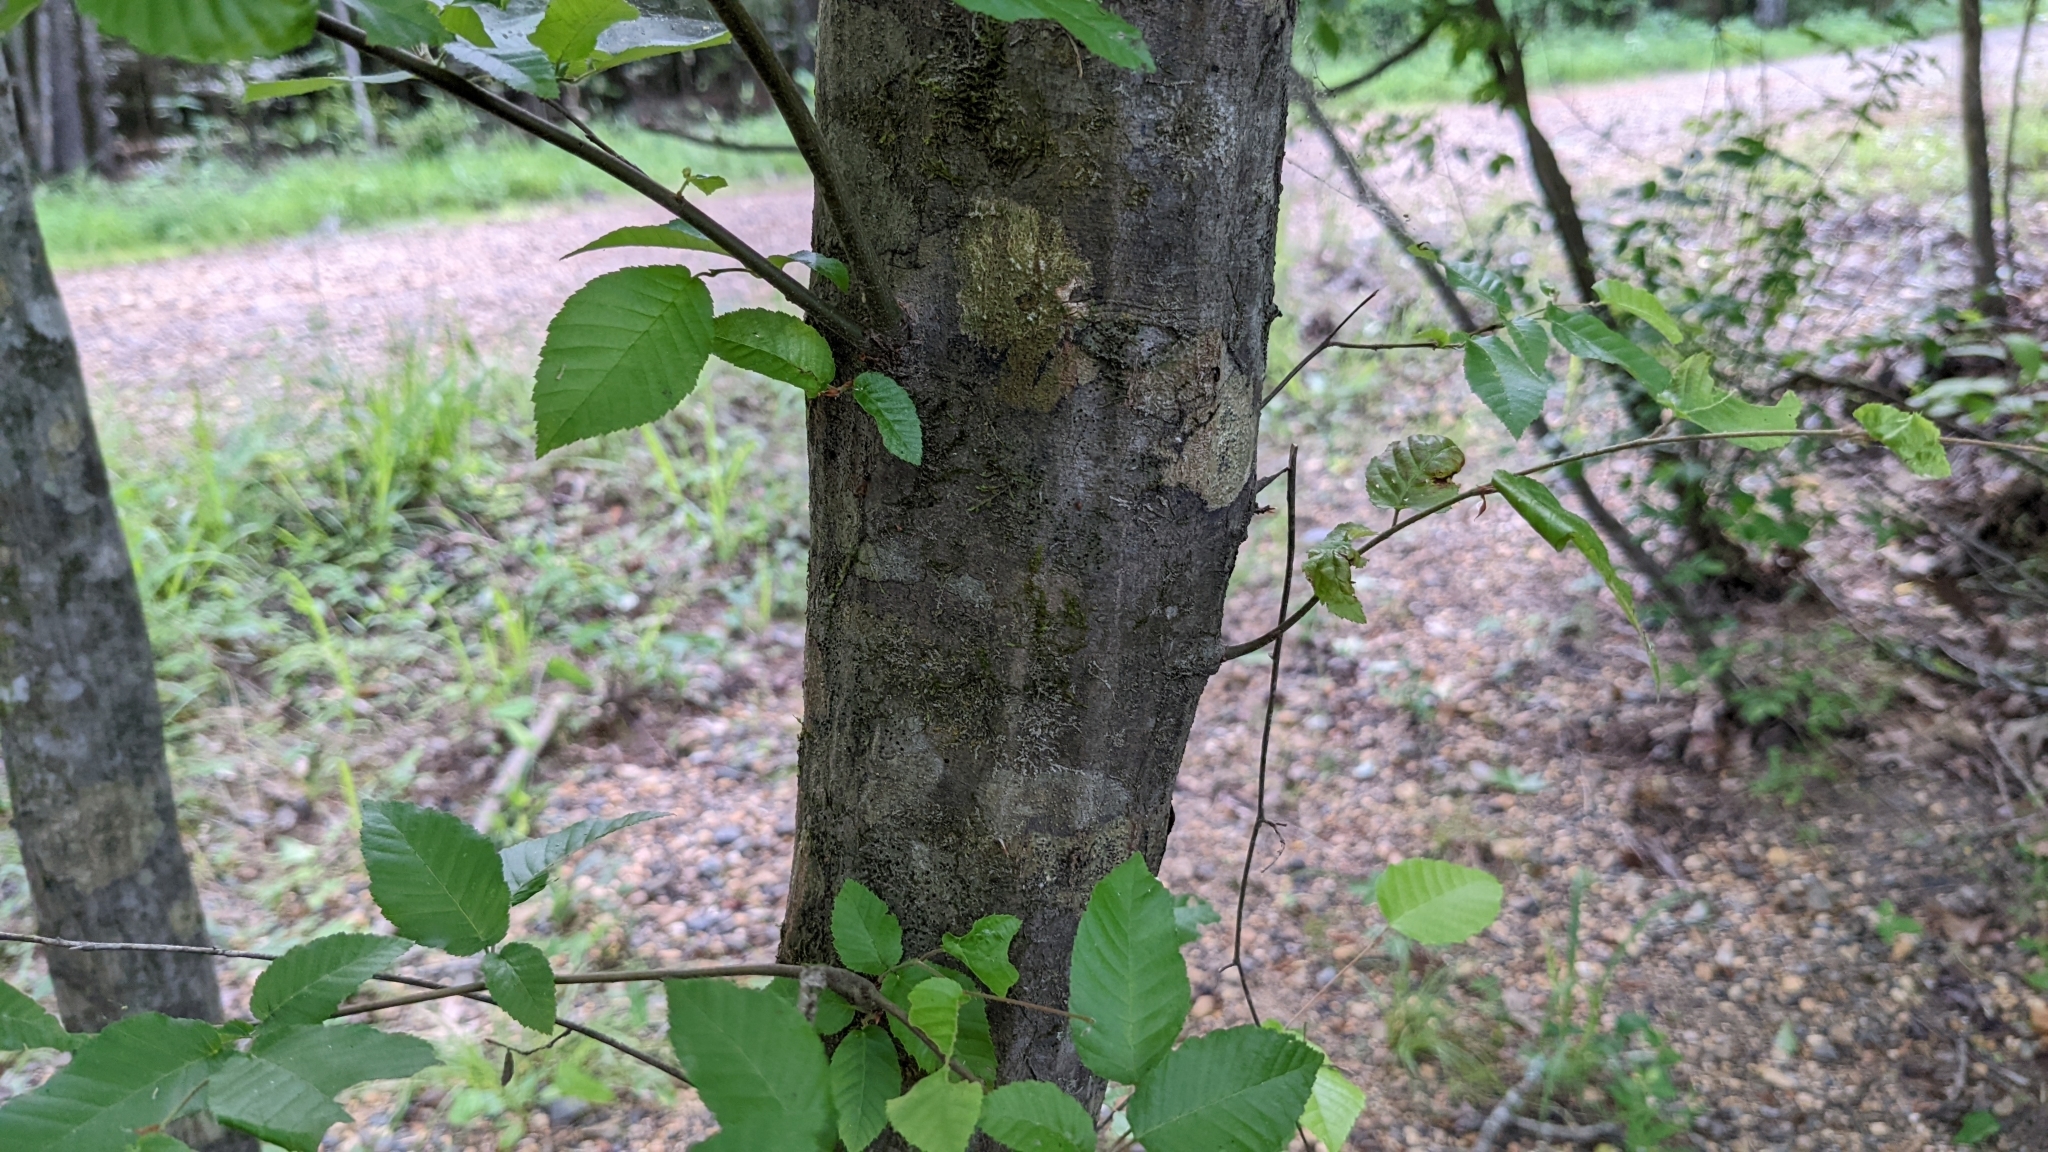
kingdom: Plantae
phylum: Tracheophyta
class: Magnoliopsida
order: Fagales
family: Betulaceae
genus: Carpinus
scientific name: Carpinus caroliniana
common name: American hornbeam
